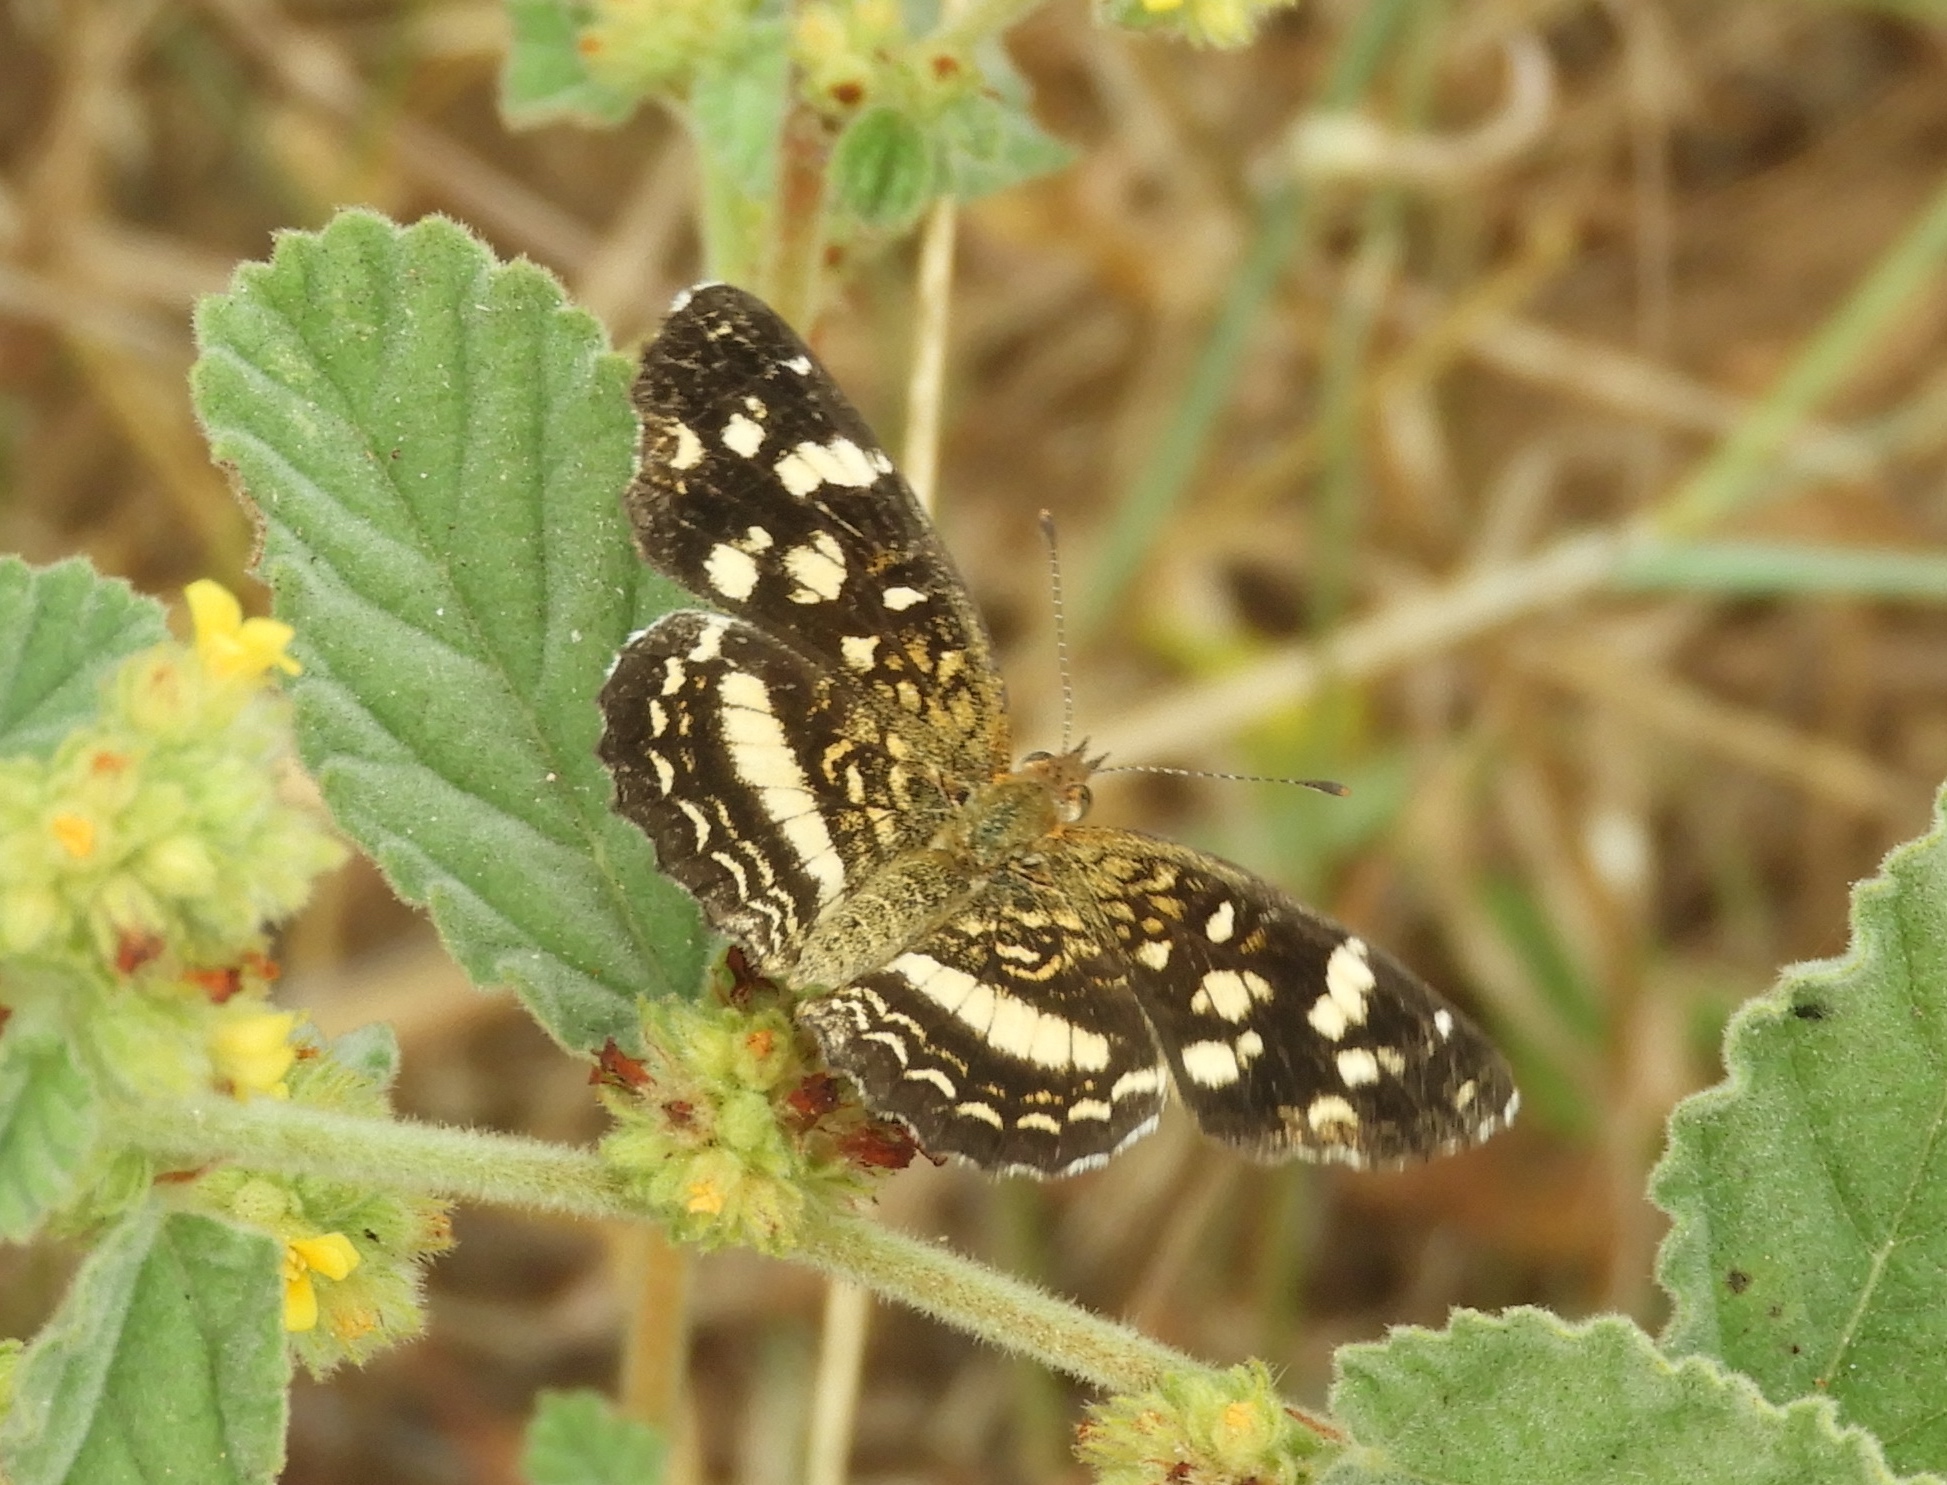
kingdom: Animalia
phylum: Arthropoda
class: Insecta
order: Lepidoptera
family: Nymphalidae
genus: Anthanassa
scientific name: Anthanassa tulcis
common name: Pale-banded crescent
